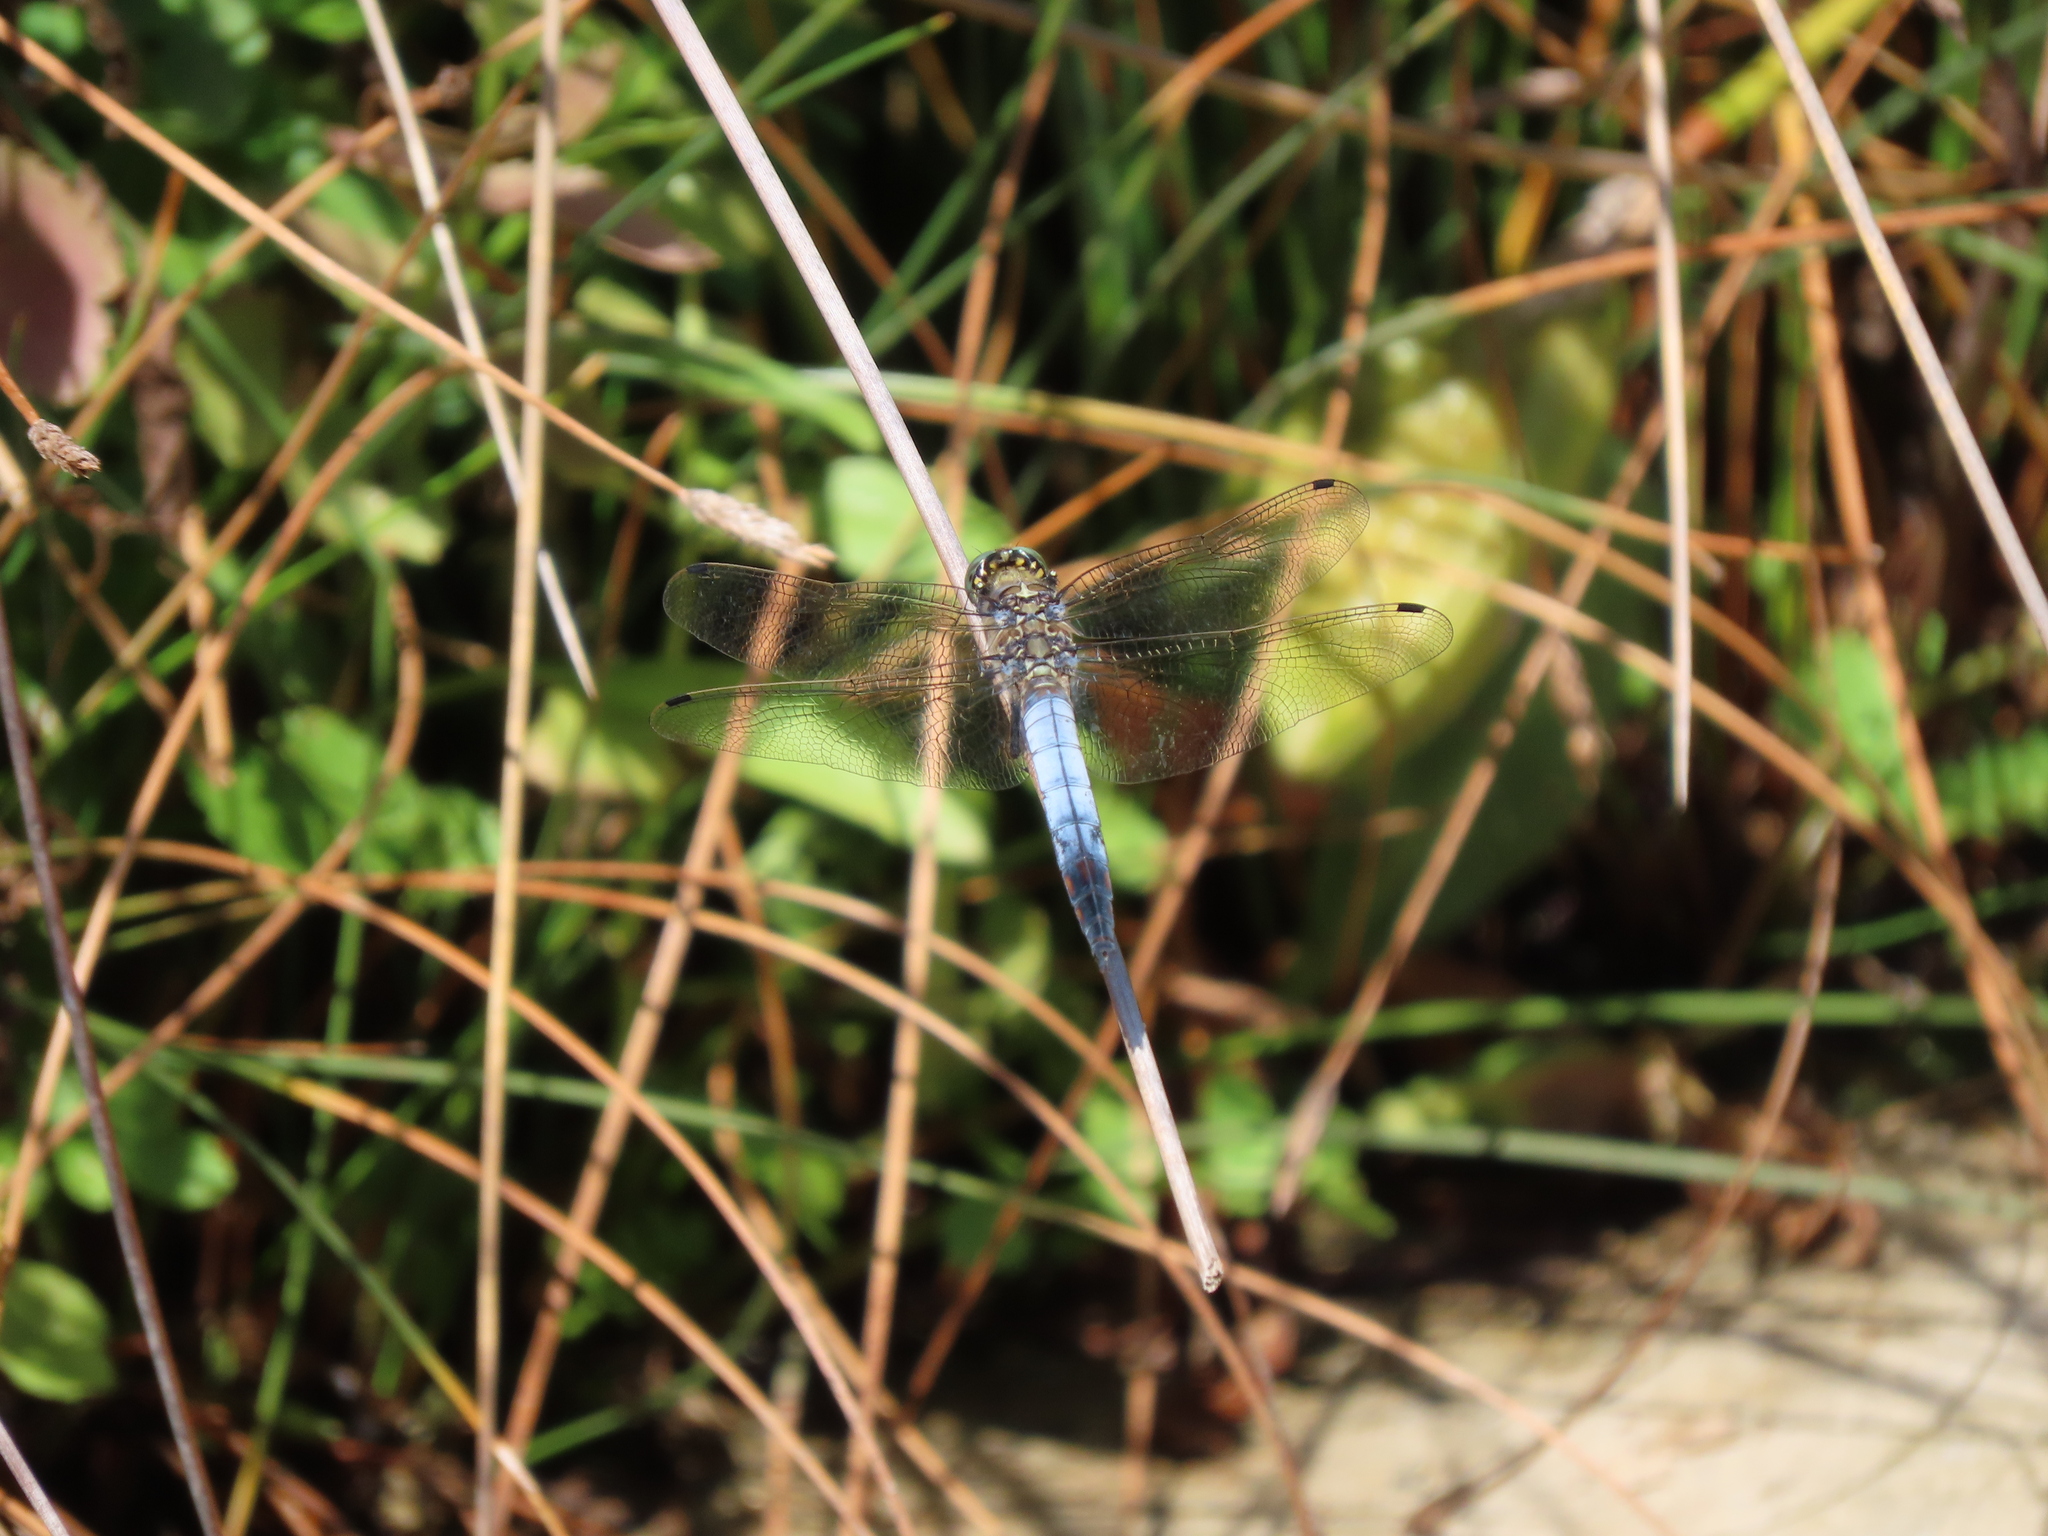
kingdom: Animalia
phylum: Arthropoda
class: Insecta
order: Odonata
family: Libellulidae
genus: Orthetrum
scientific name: Orthetrum cancellatum
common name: Black-tailed skimmer
